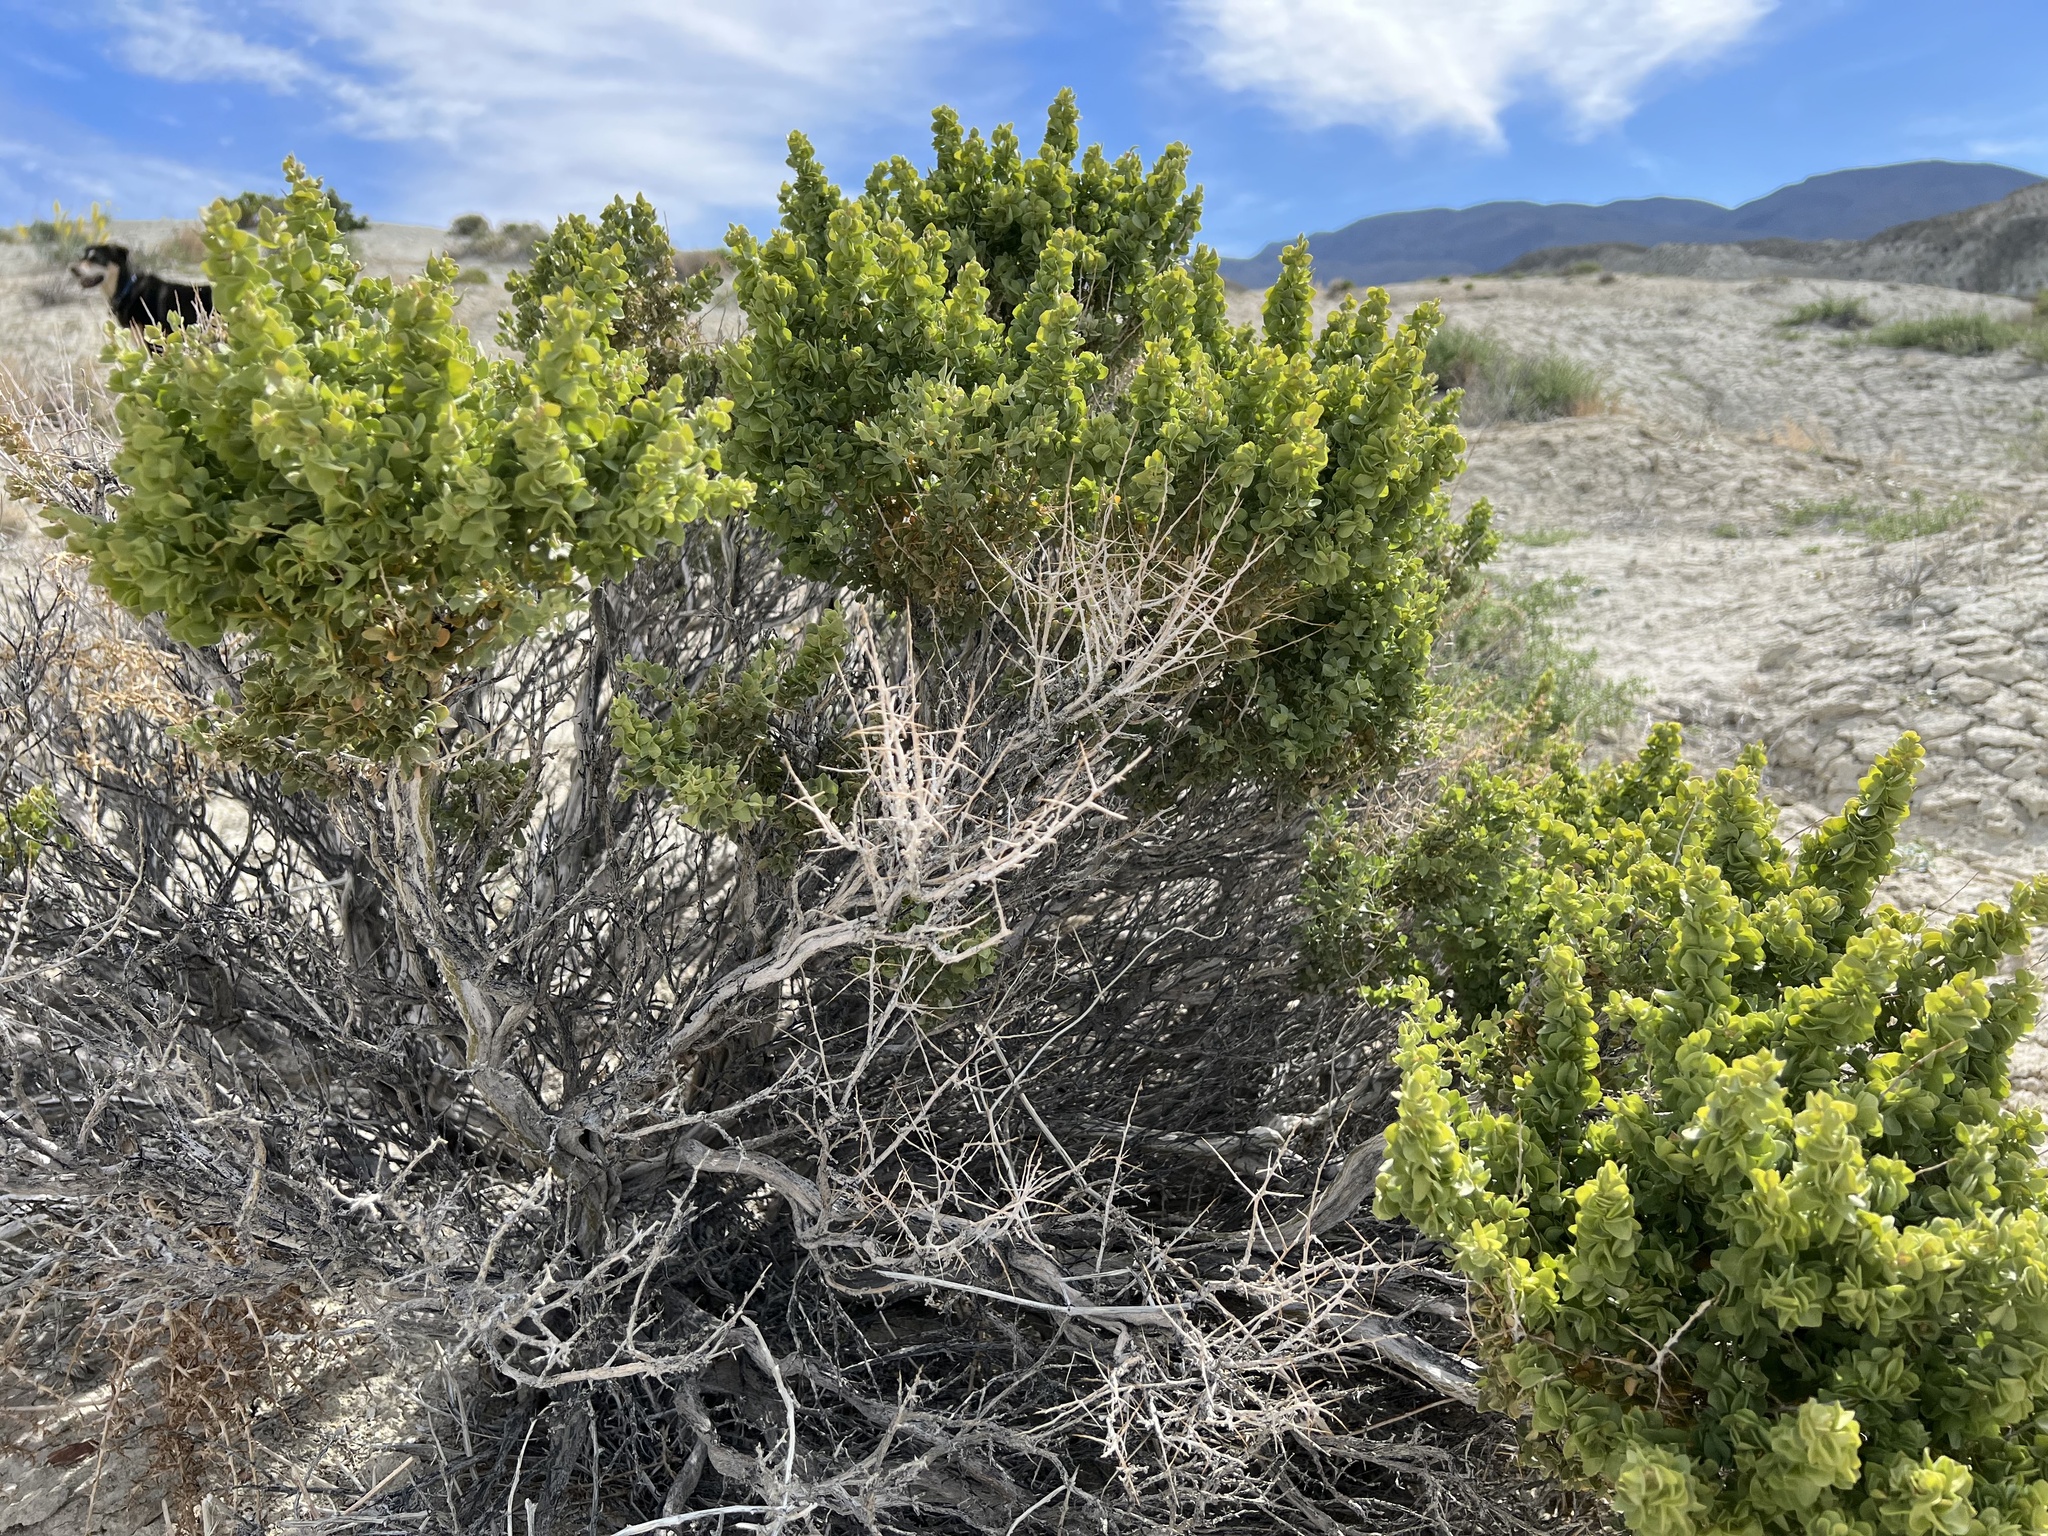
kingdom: Plantae
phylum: Tracheophyta
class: Magnoliopsida
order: Caryophyllales
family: Amaranthaceae
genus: Atriplex
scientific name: Atriplex confertifolia
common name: Shadscale
